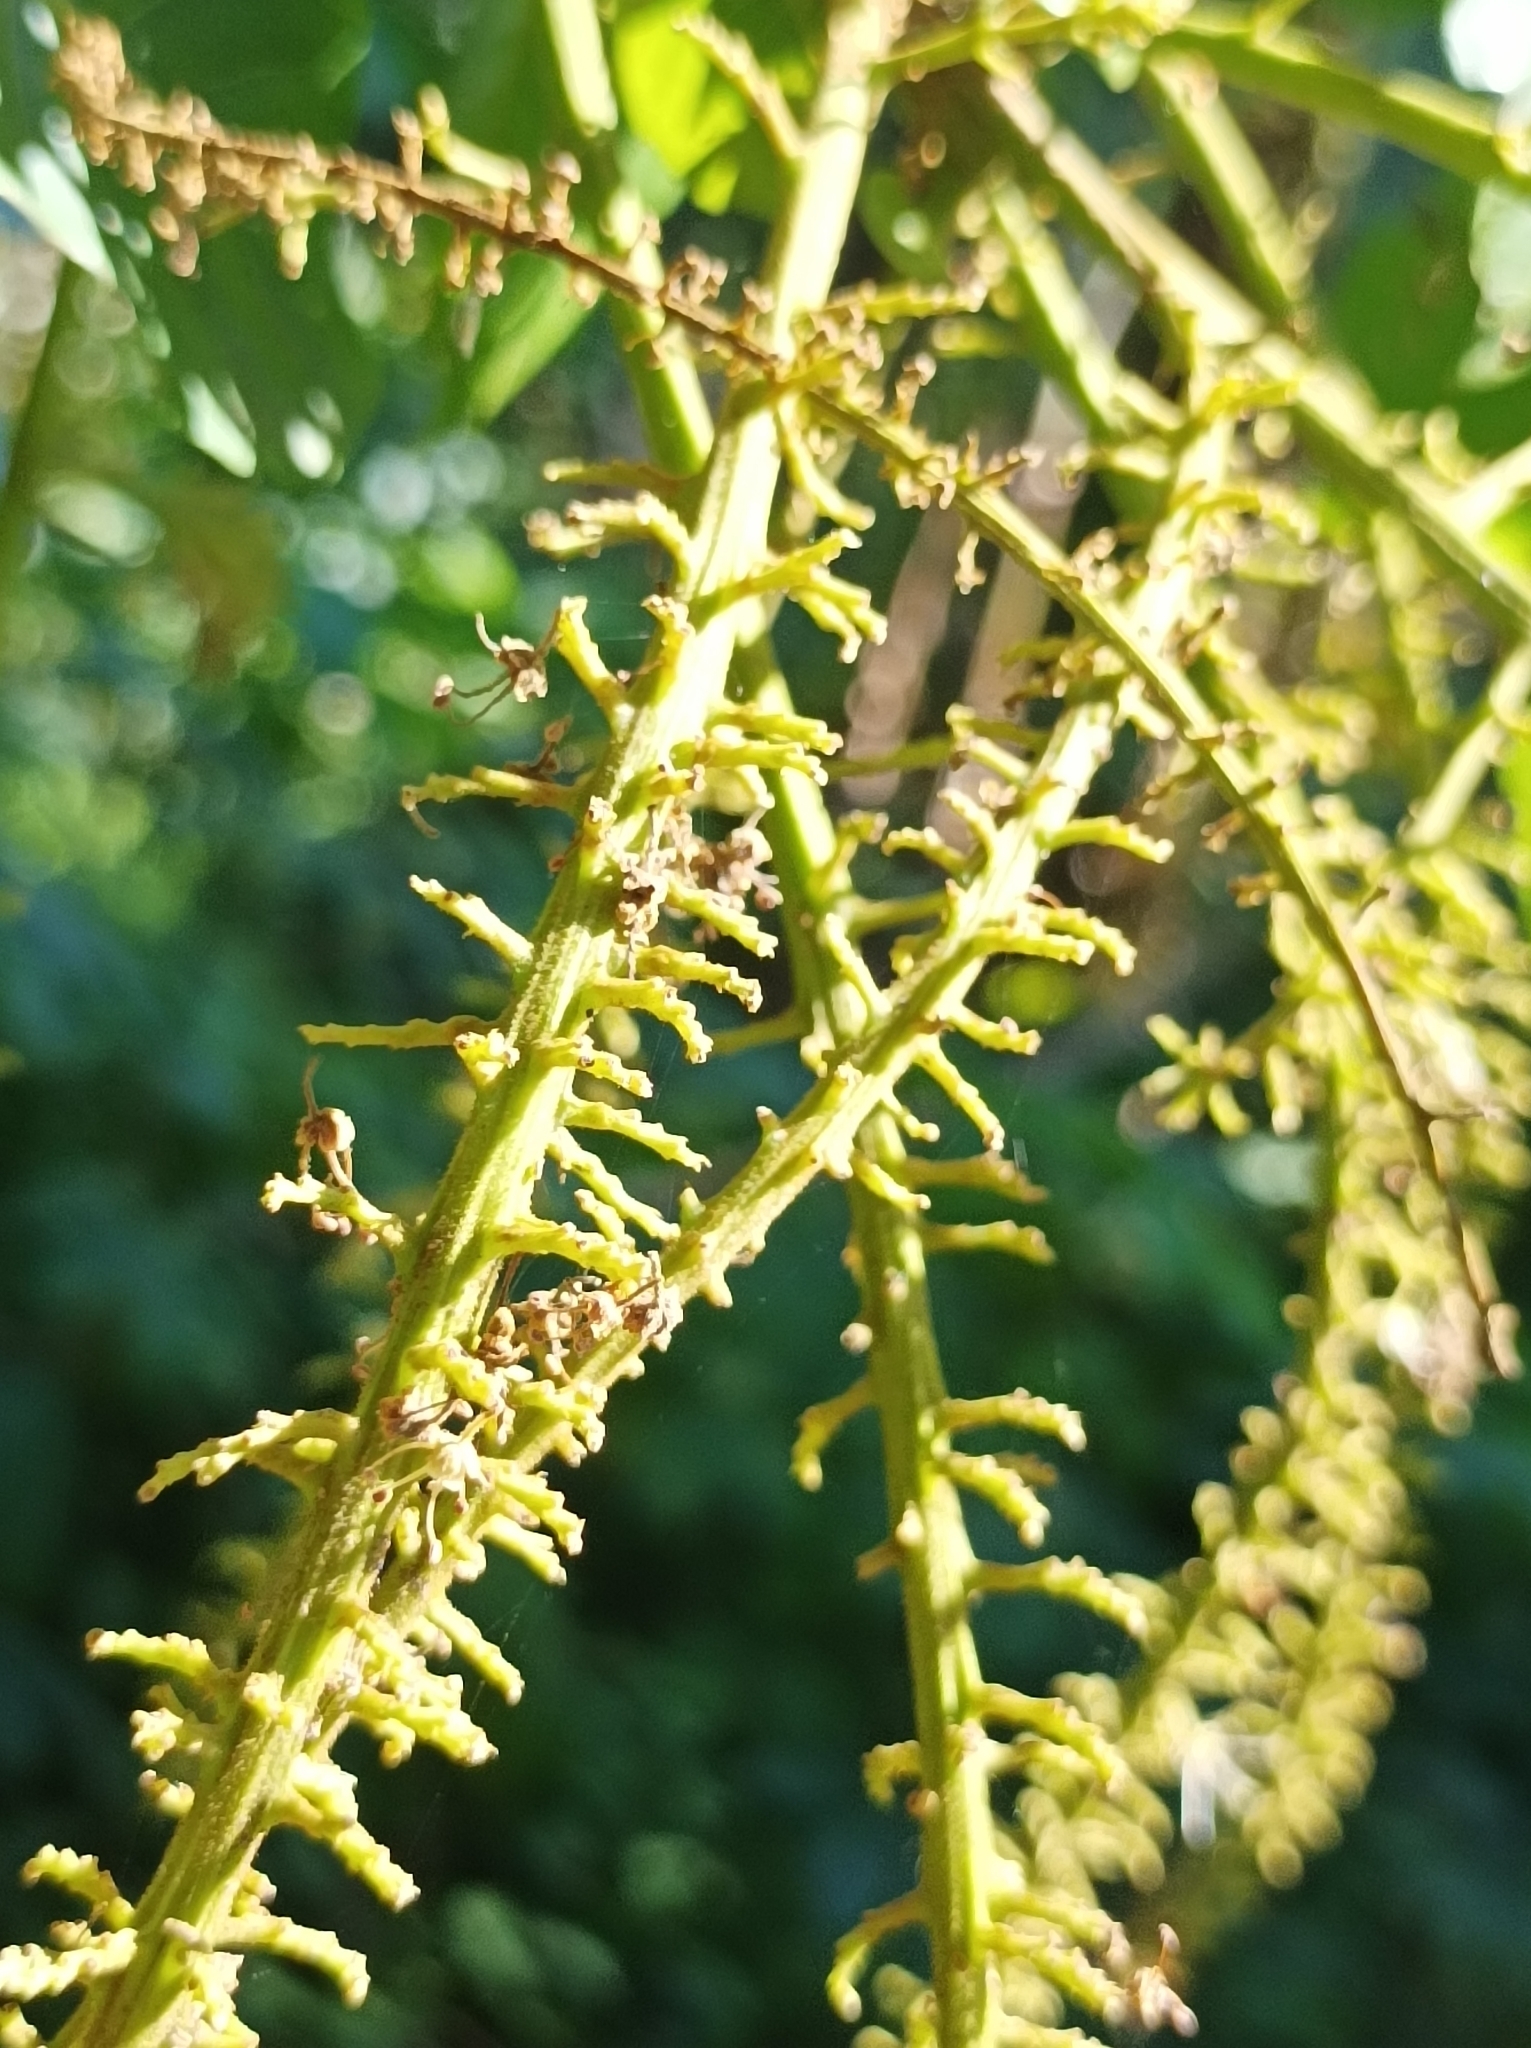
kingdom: Plantae
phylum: Tracheophyta
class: Magnoliopsida
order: Sapindales
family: Sapindaceae
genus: Pometia
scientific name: Pometia pinnata
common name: Oceanic lychee
